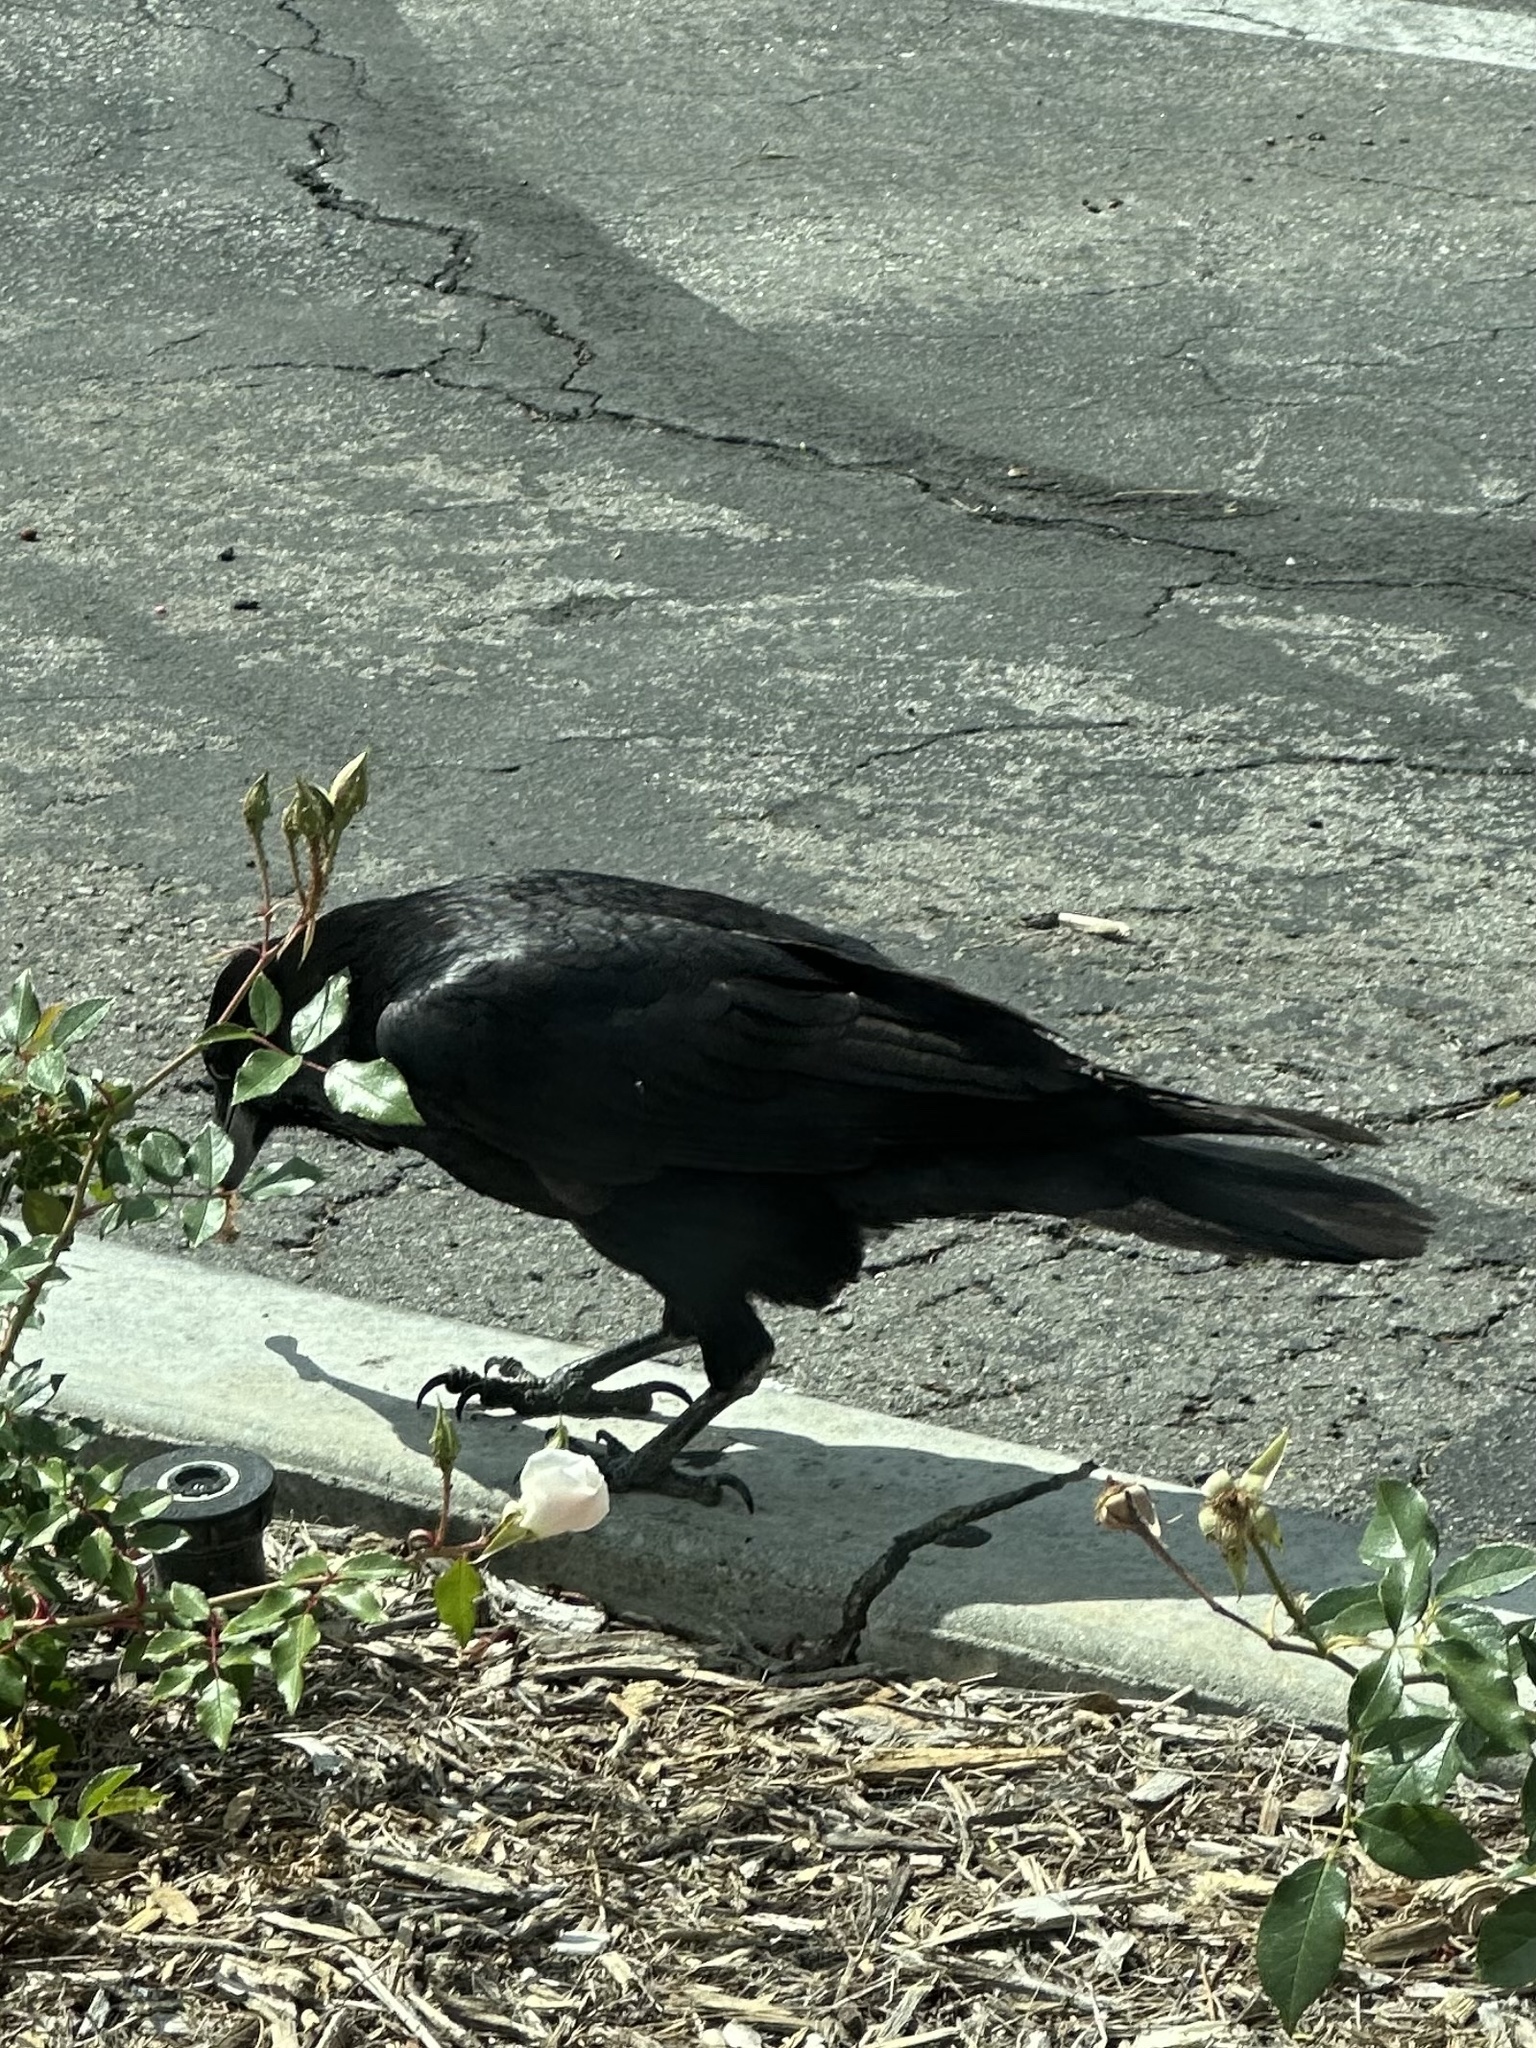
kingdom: Animalia
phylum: Chordata
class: Aves
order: Passeriformes
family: Corvidae
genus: Corvus
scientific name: Corvus corax
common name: Common raven
